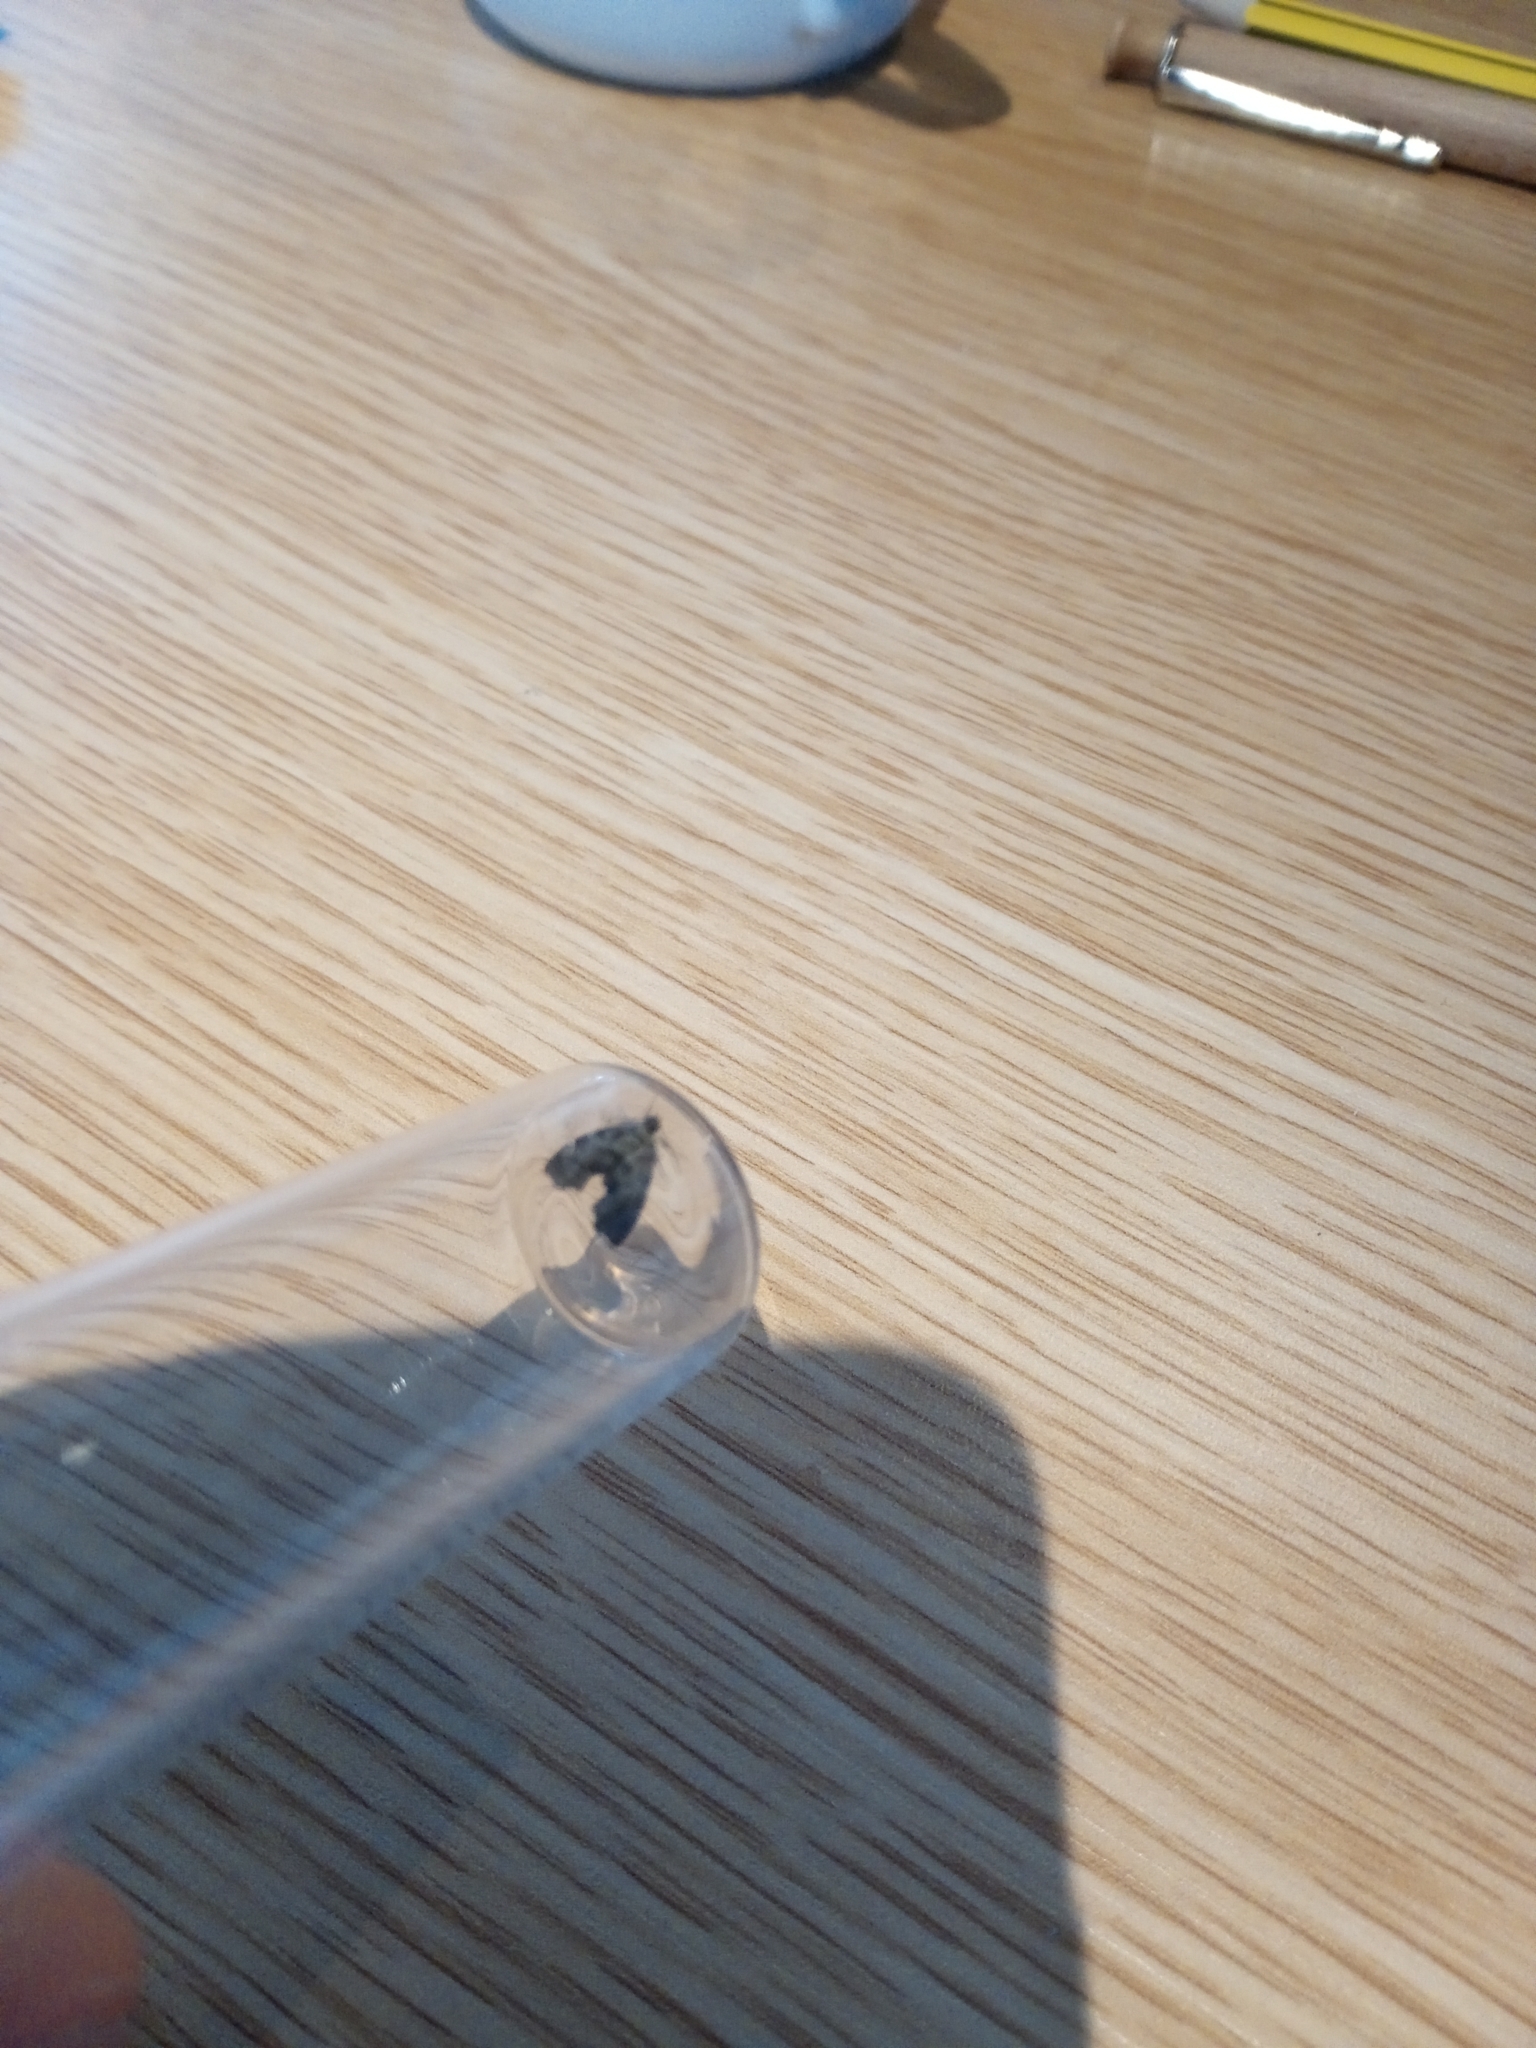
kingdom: Animalia
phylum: Arthropoda
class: Insecta
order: Lepidoptera
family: Choreutidae
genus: Anthophila
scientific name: Anthophila fabriciana
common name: Nettle-tap
